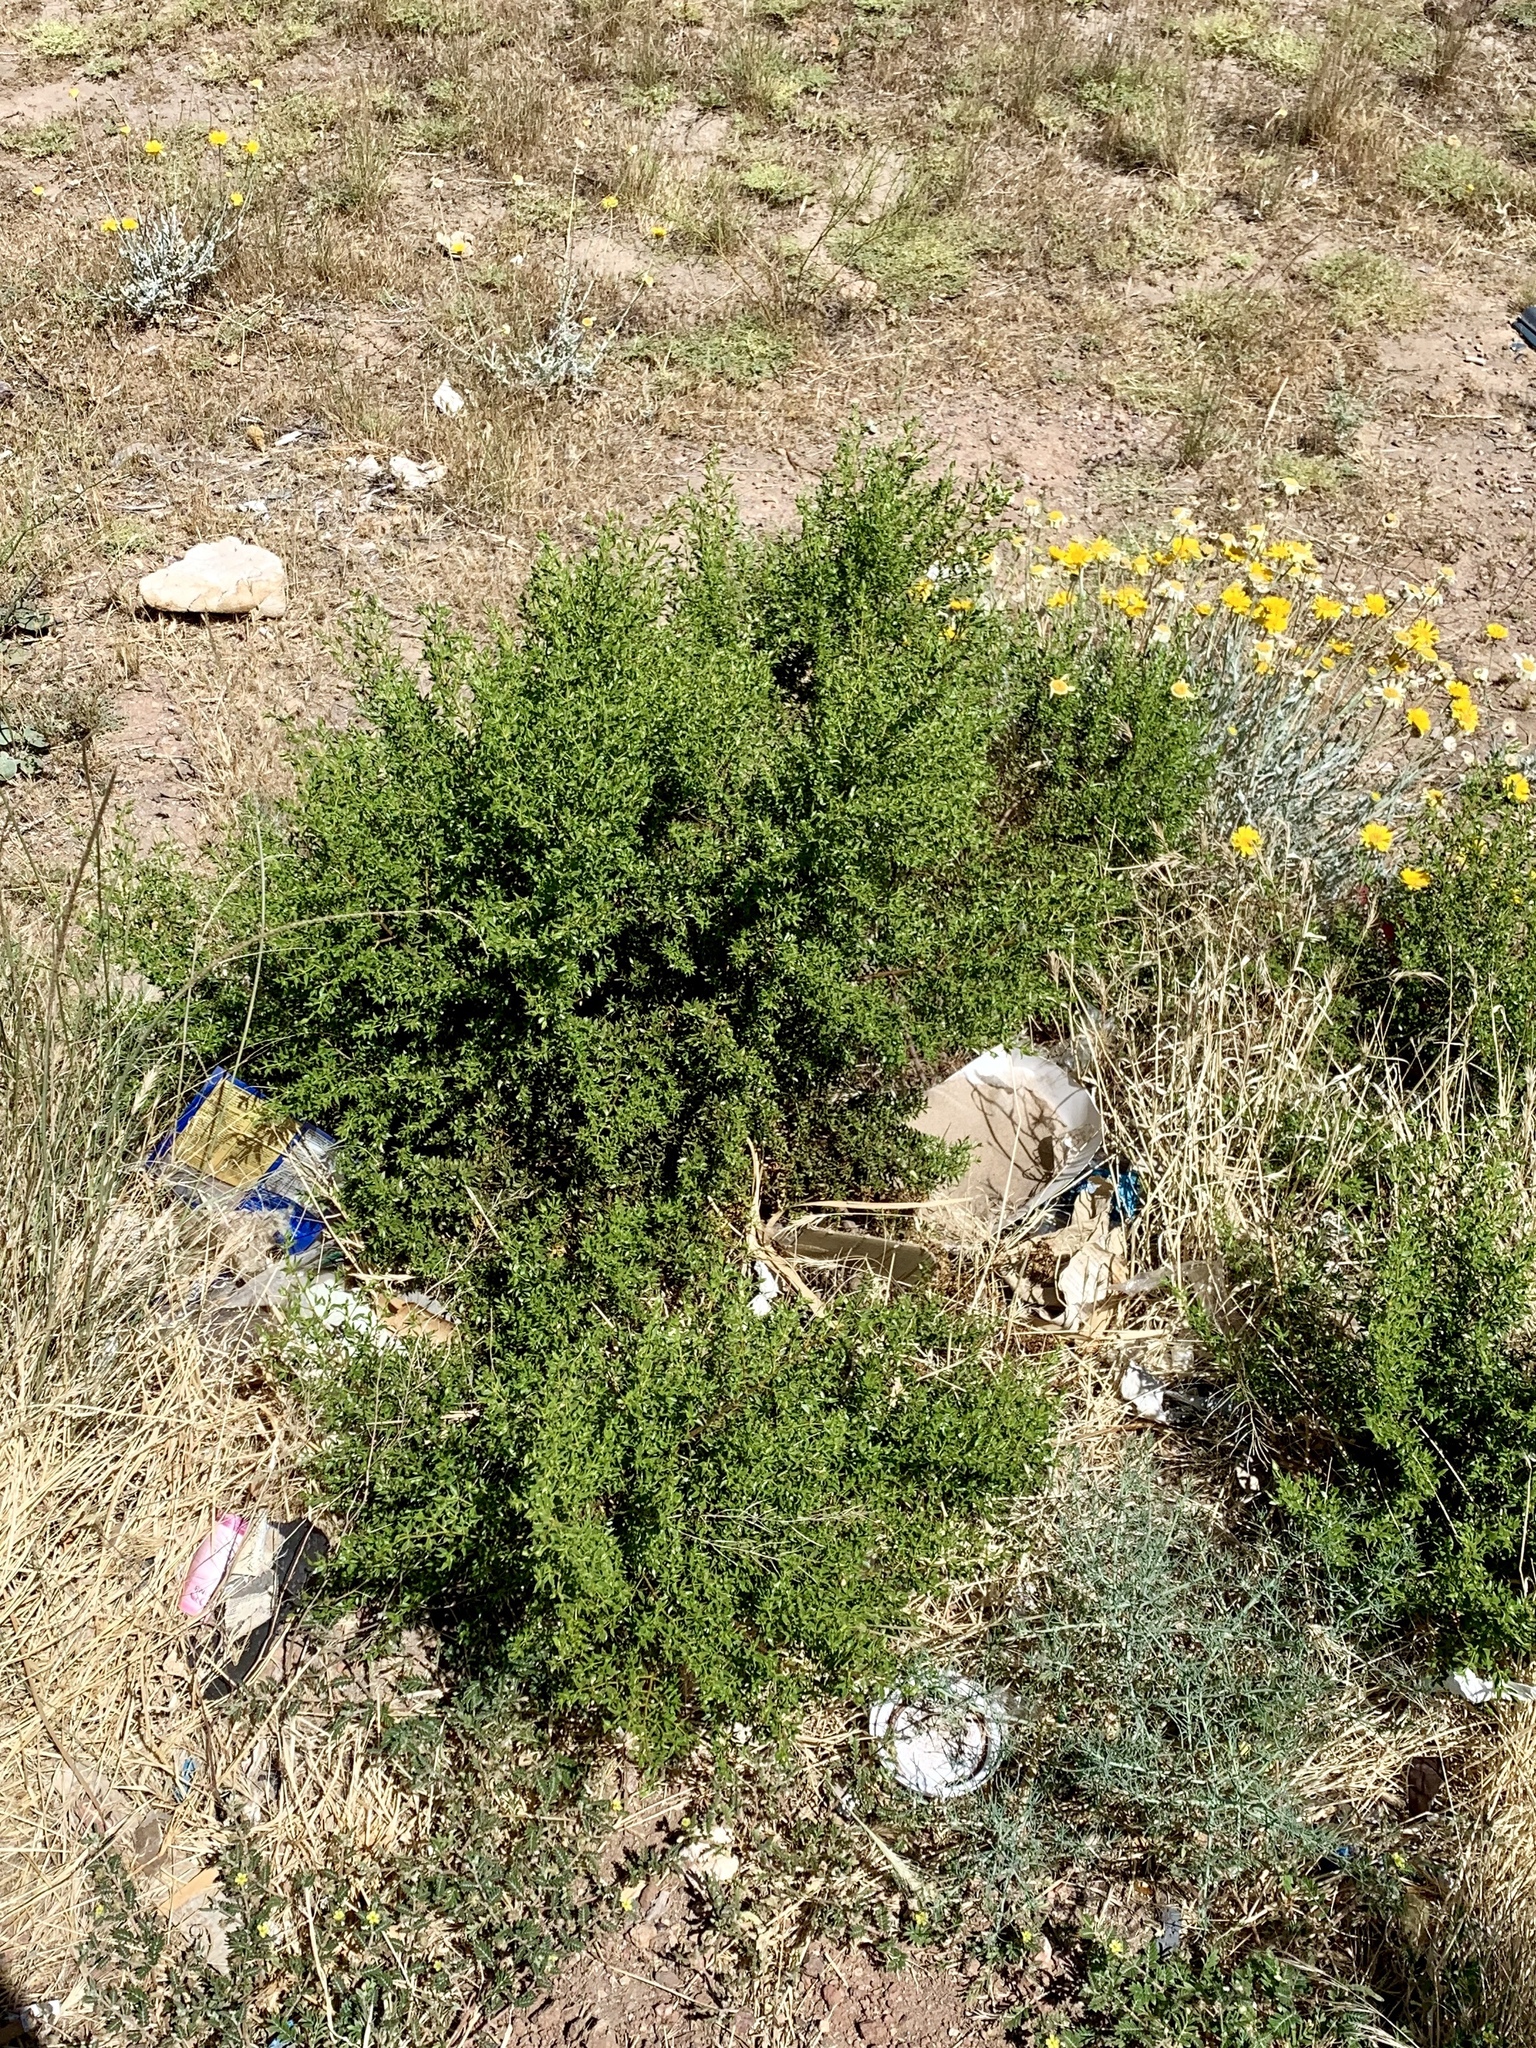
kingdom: Plantae
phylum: Tracheophyta
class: Magnoliopsida
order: Zygophyllales
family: Zygophyllaceae
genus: Larrea
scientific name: Larrea tridentata
